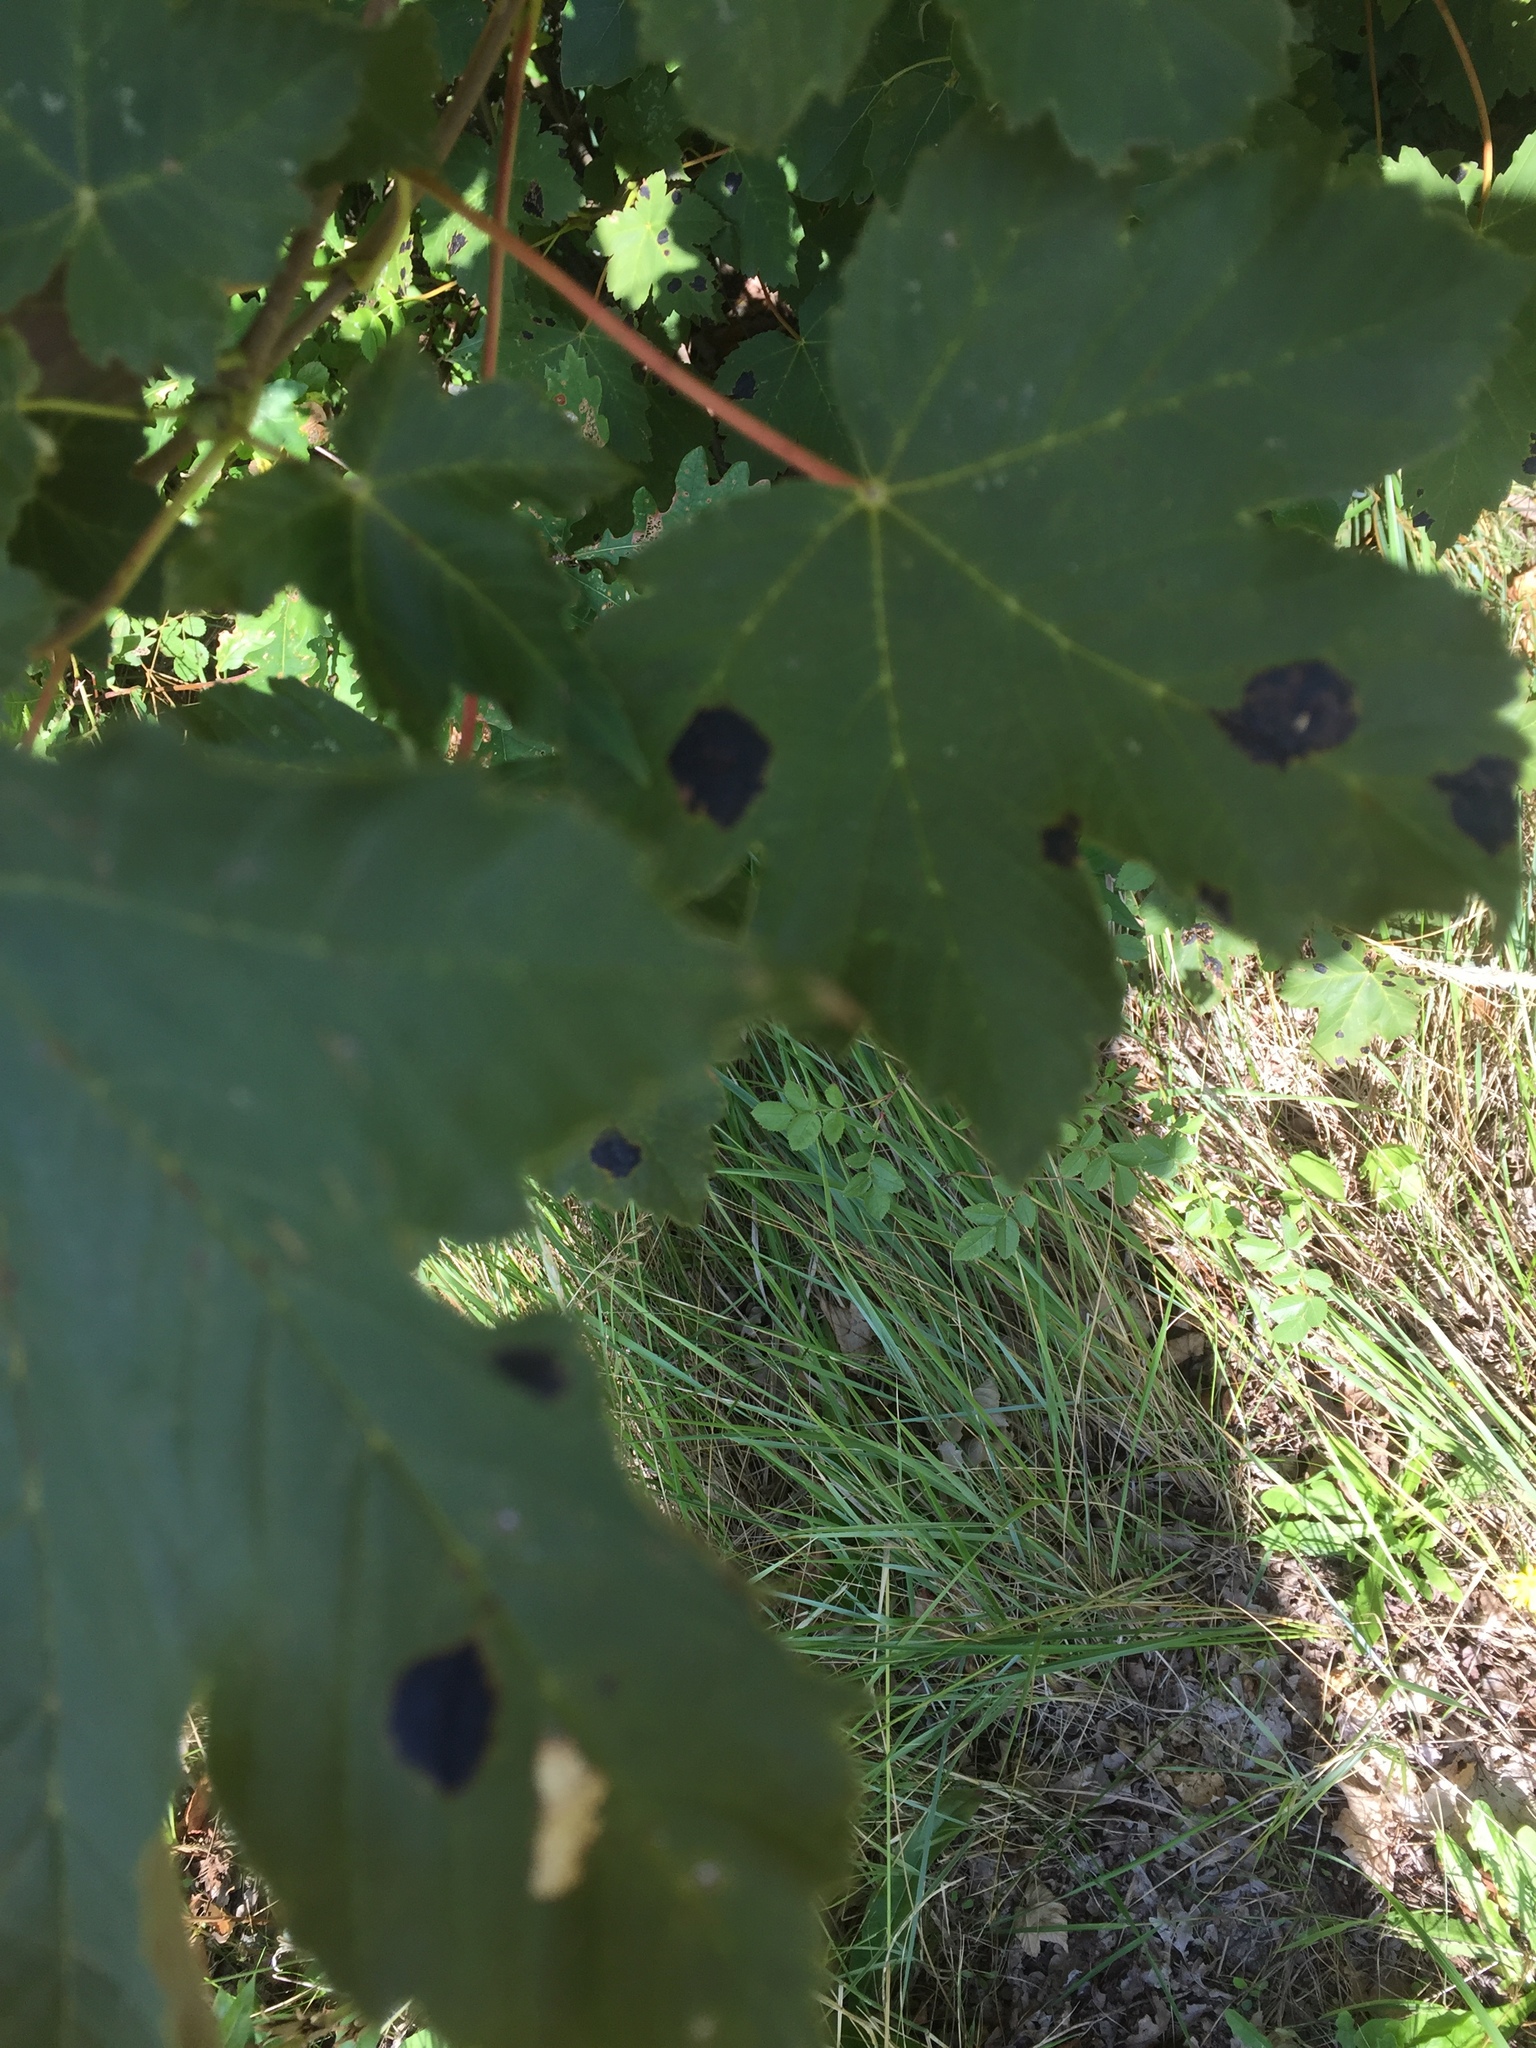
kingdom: Plantae
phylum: Tracheophyta
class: Magnoliopsida
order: Sapindales
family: Sapindaceae
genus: Acer
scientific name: Acer pseudoplatanus
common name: Sycamore
